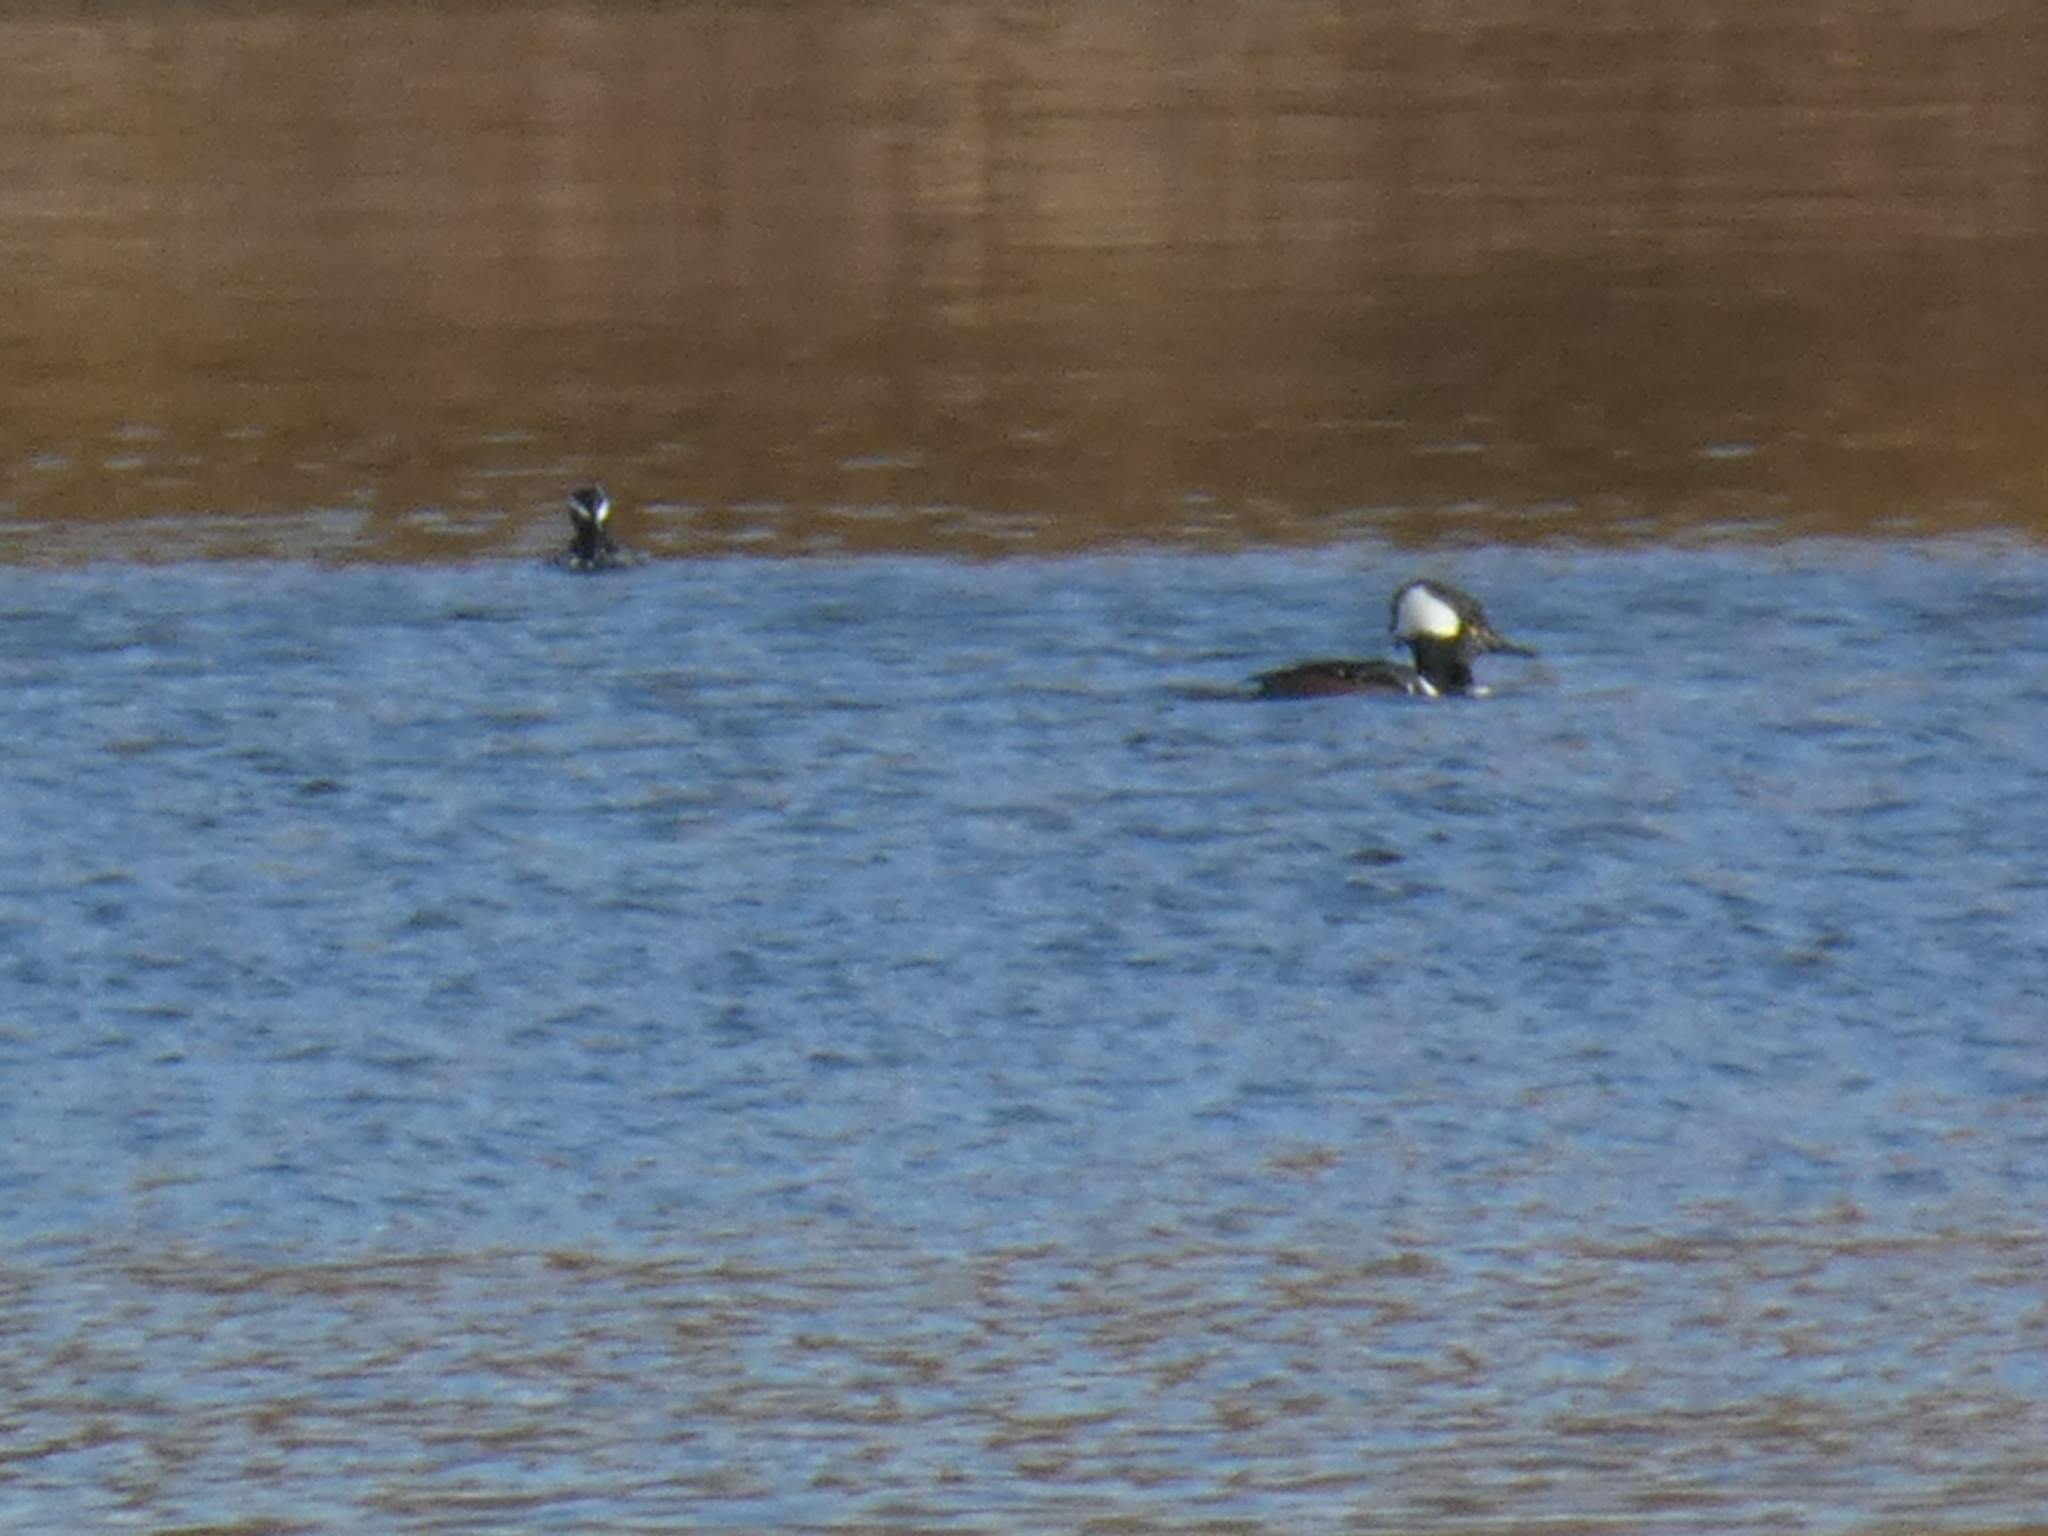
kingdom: Animalia
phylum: Chordata
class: Aves
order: Anseriformes
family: Anatidae
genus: Lophodytes
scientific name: Lophodytes cucullatus
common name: Hooded merganser
